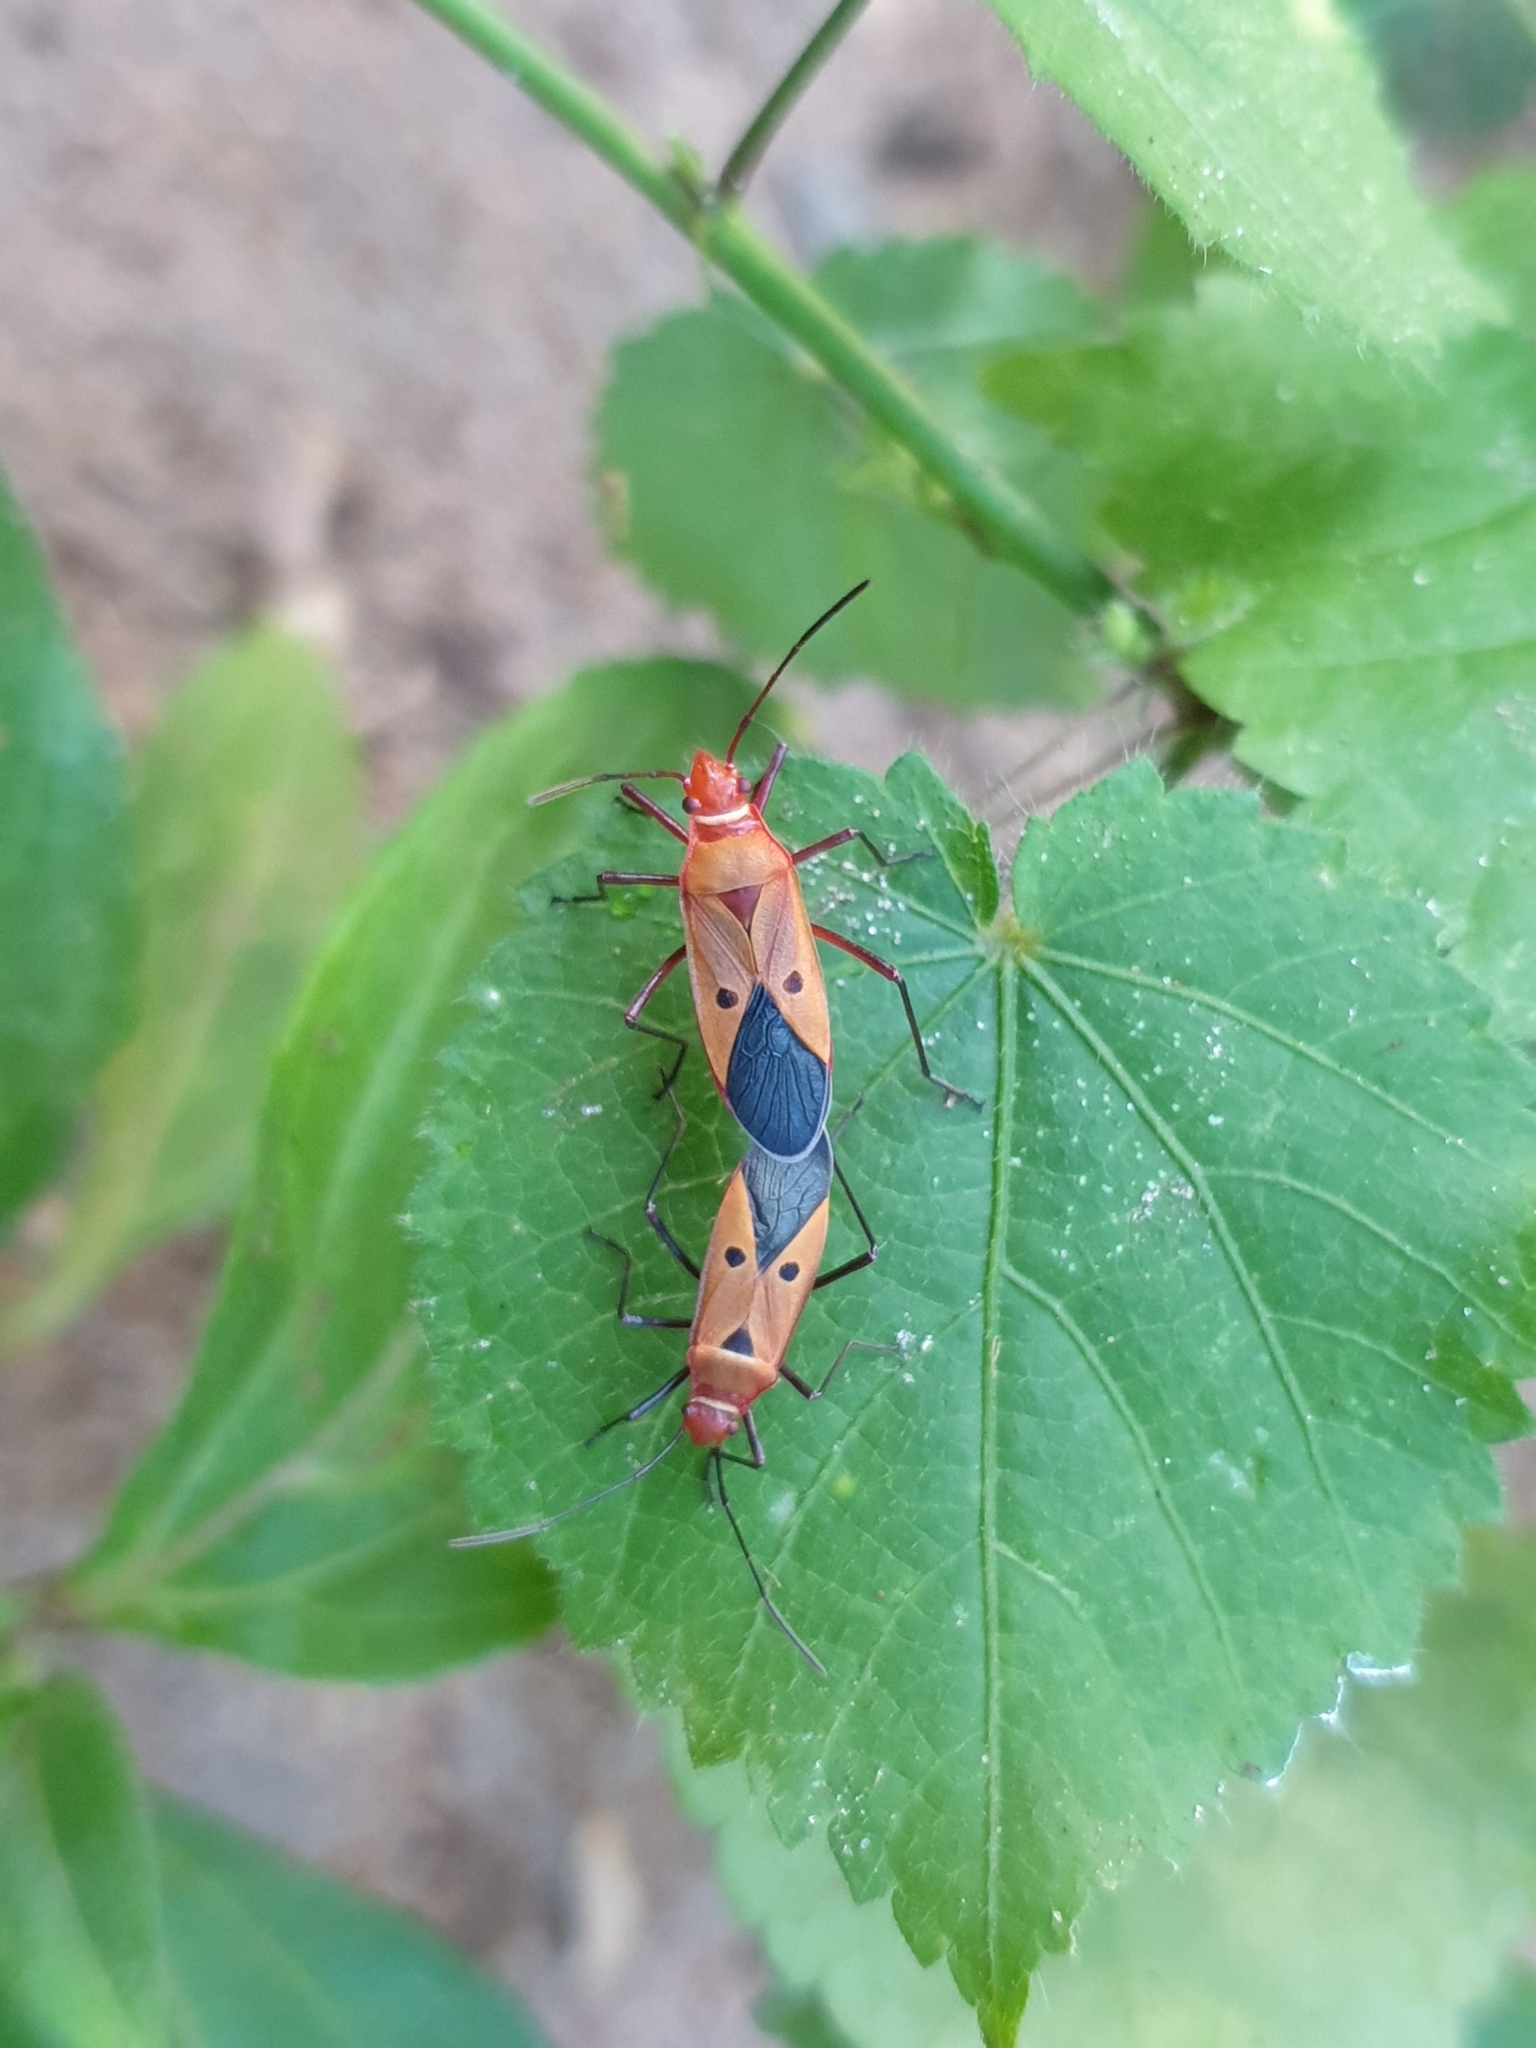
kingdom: Animalia
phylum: Arthropoda
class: Insecta
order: Hemiptera
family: Pyrrhocoridae
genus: Dysdercus
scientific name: Dysdercus cingulatus
